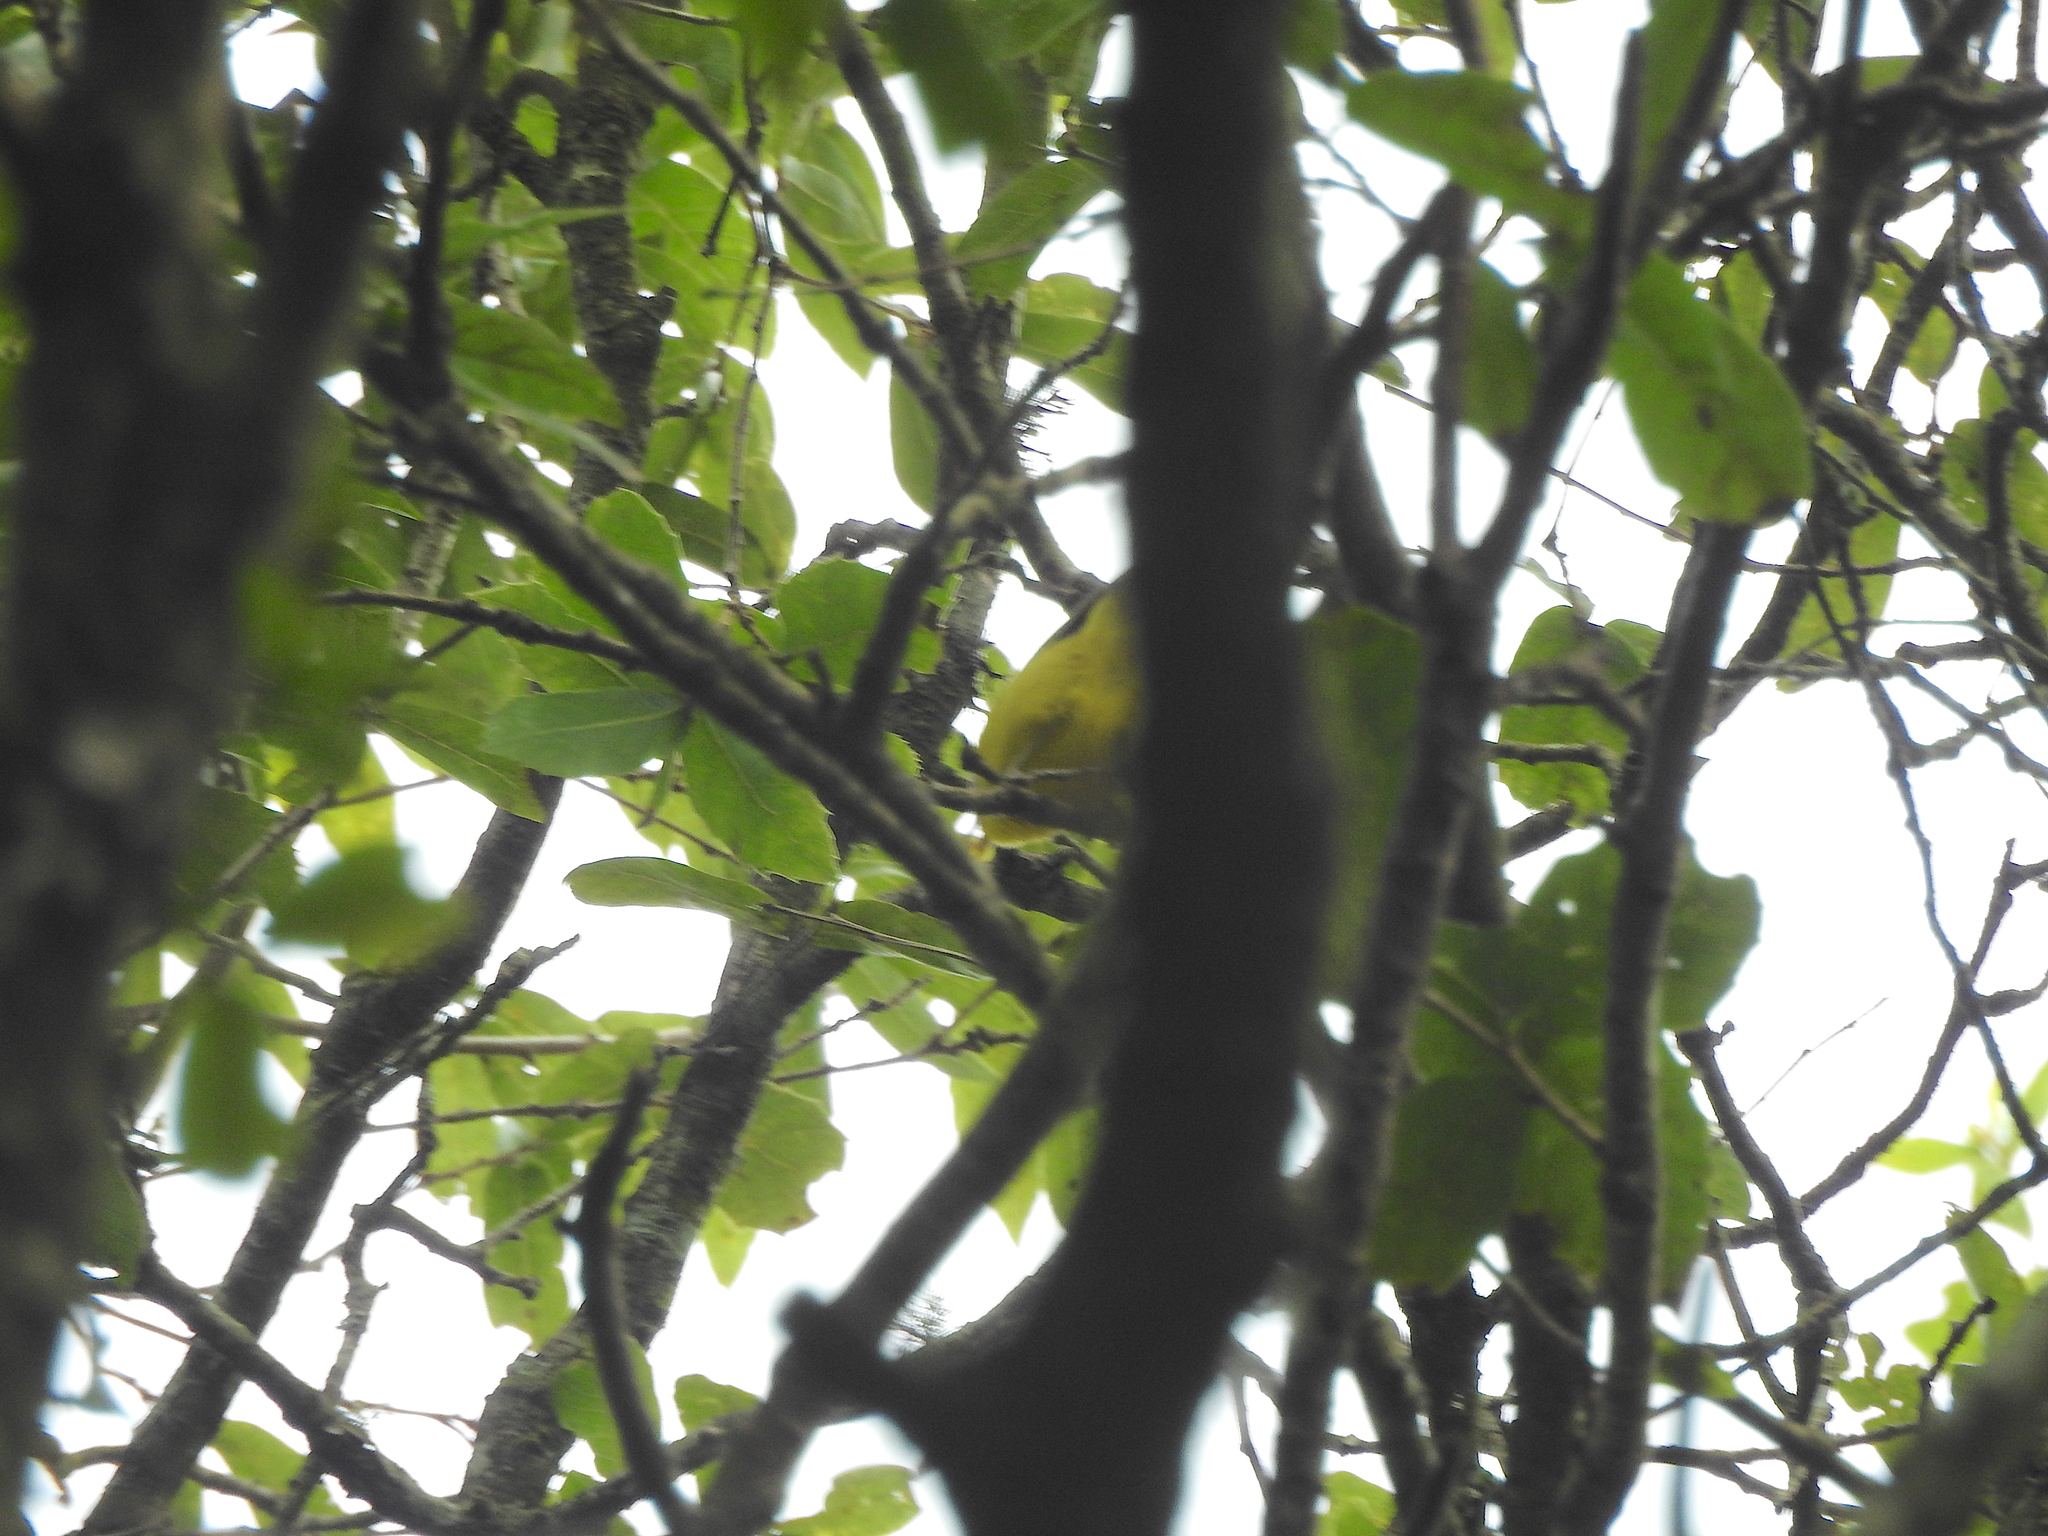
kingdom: Animalia
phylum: Chordata
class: Aves
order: Passeriformes
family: Phylloscopidae
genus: Phylloscopus
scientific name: Phylloscopus xanthoschistos
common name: Grey-hooded warbler
